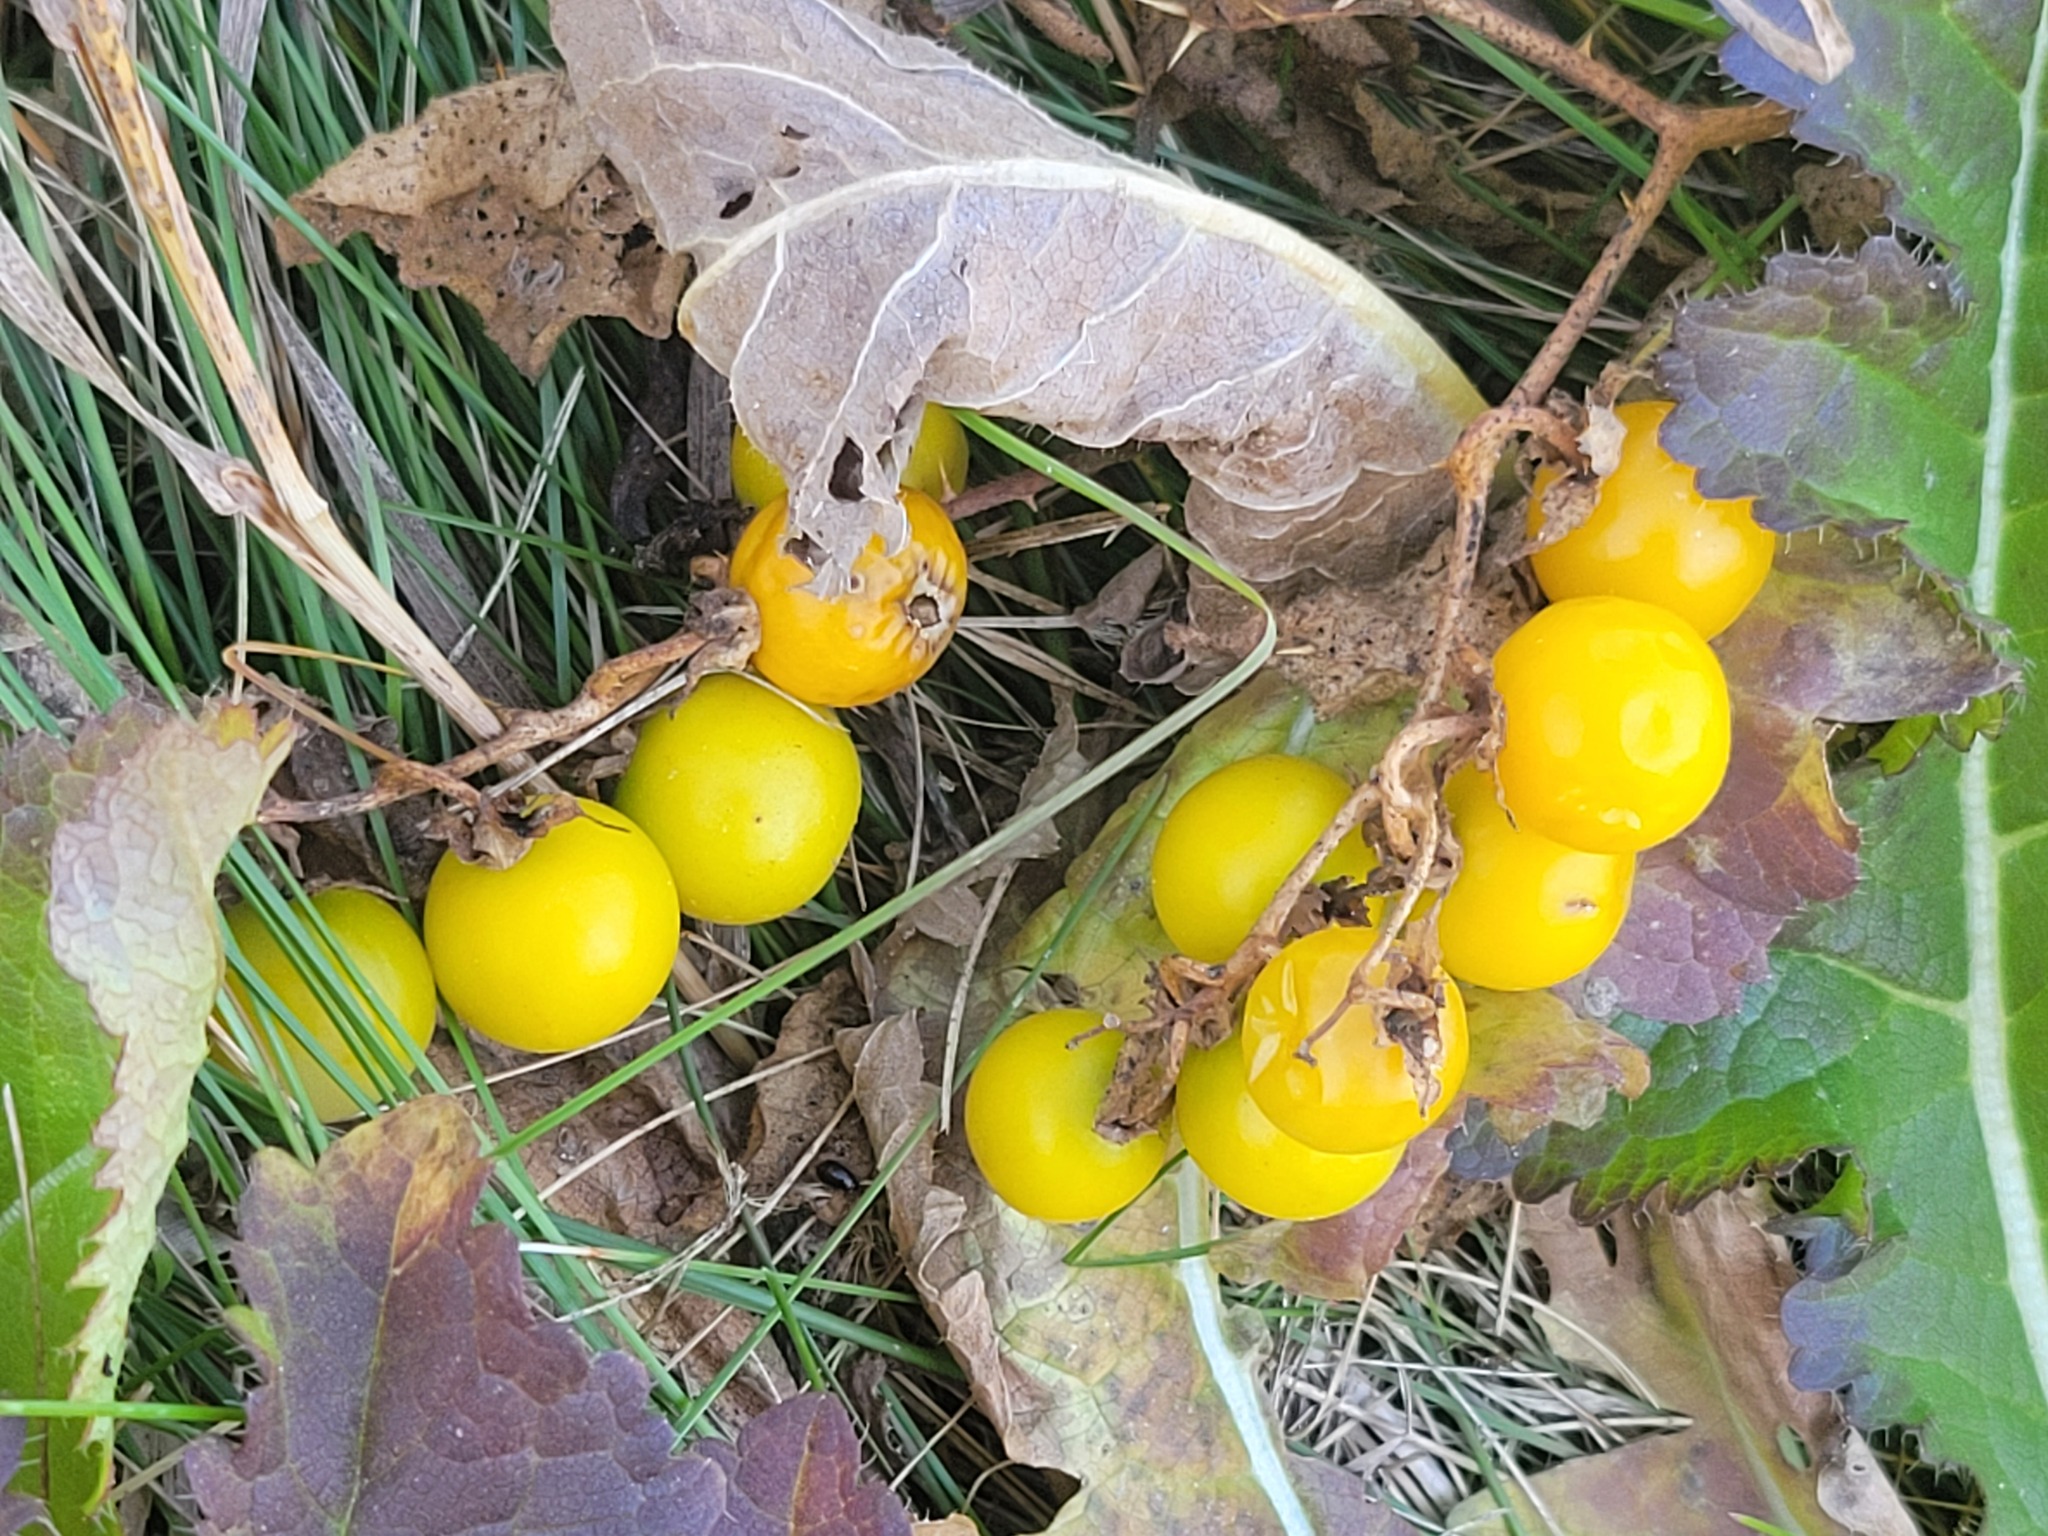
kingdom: Plantae
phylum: Tracheophyta
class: Magnoliopsida
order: Solanales
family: Solanaceae
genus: Solanum
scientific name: Solanum carolinense
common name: Horse-nettle
